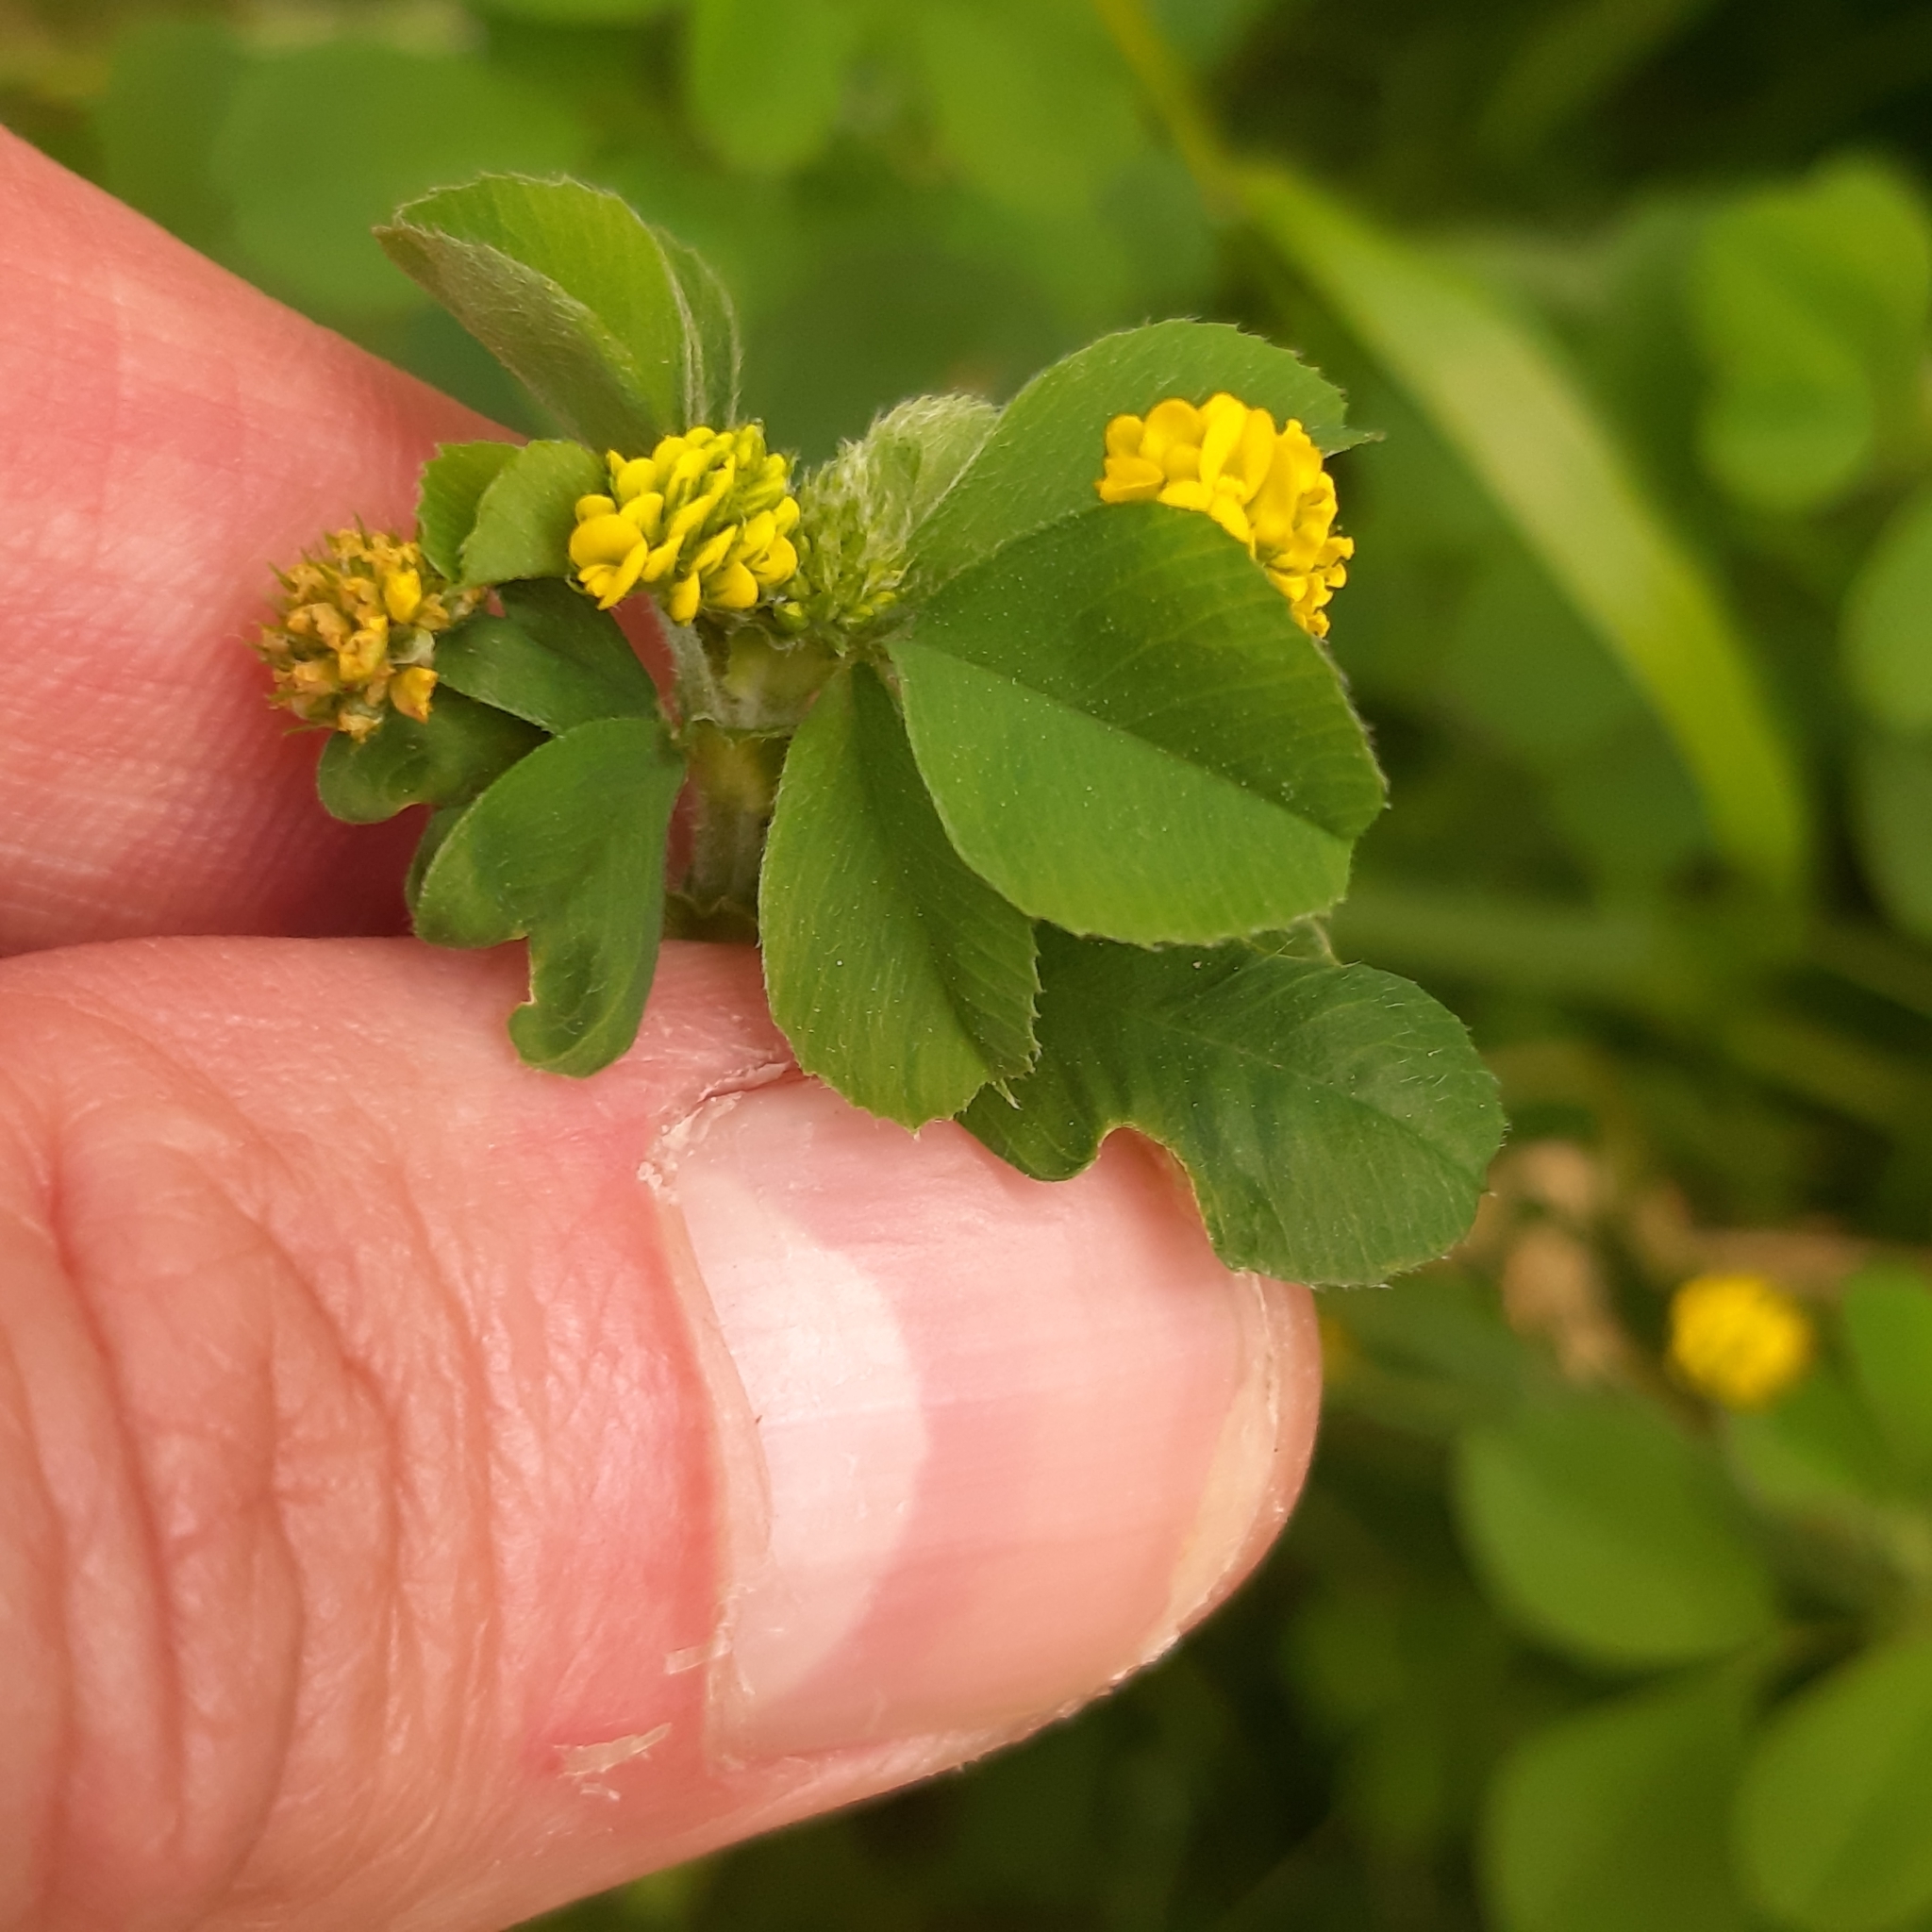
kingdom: Plantae
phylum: Tracheophyta
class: Magnoliopsida
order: Fabales
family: Fabaceae
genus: Medicago
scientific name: Medicago lupulina
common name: Black medick
